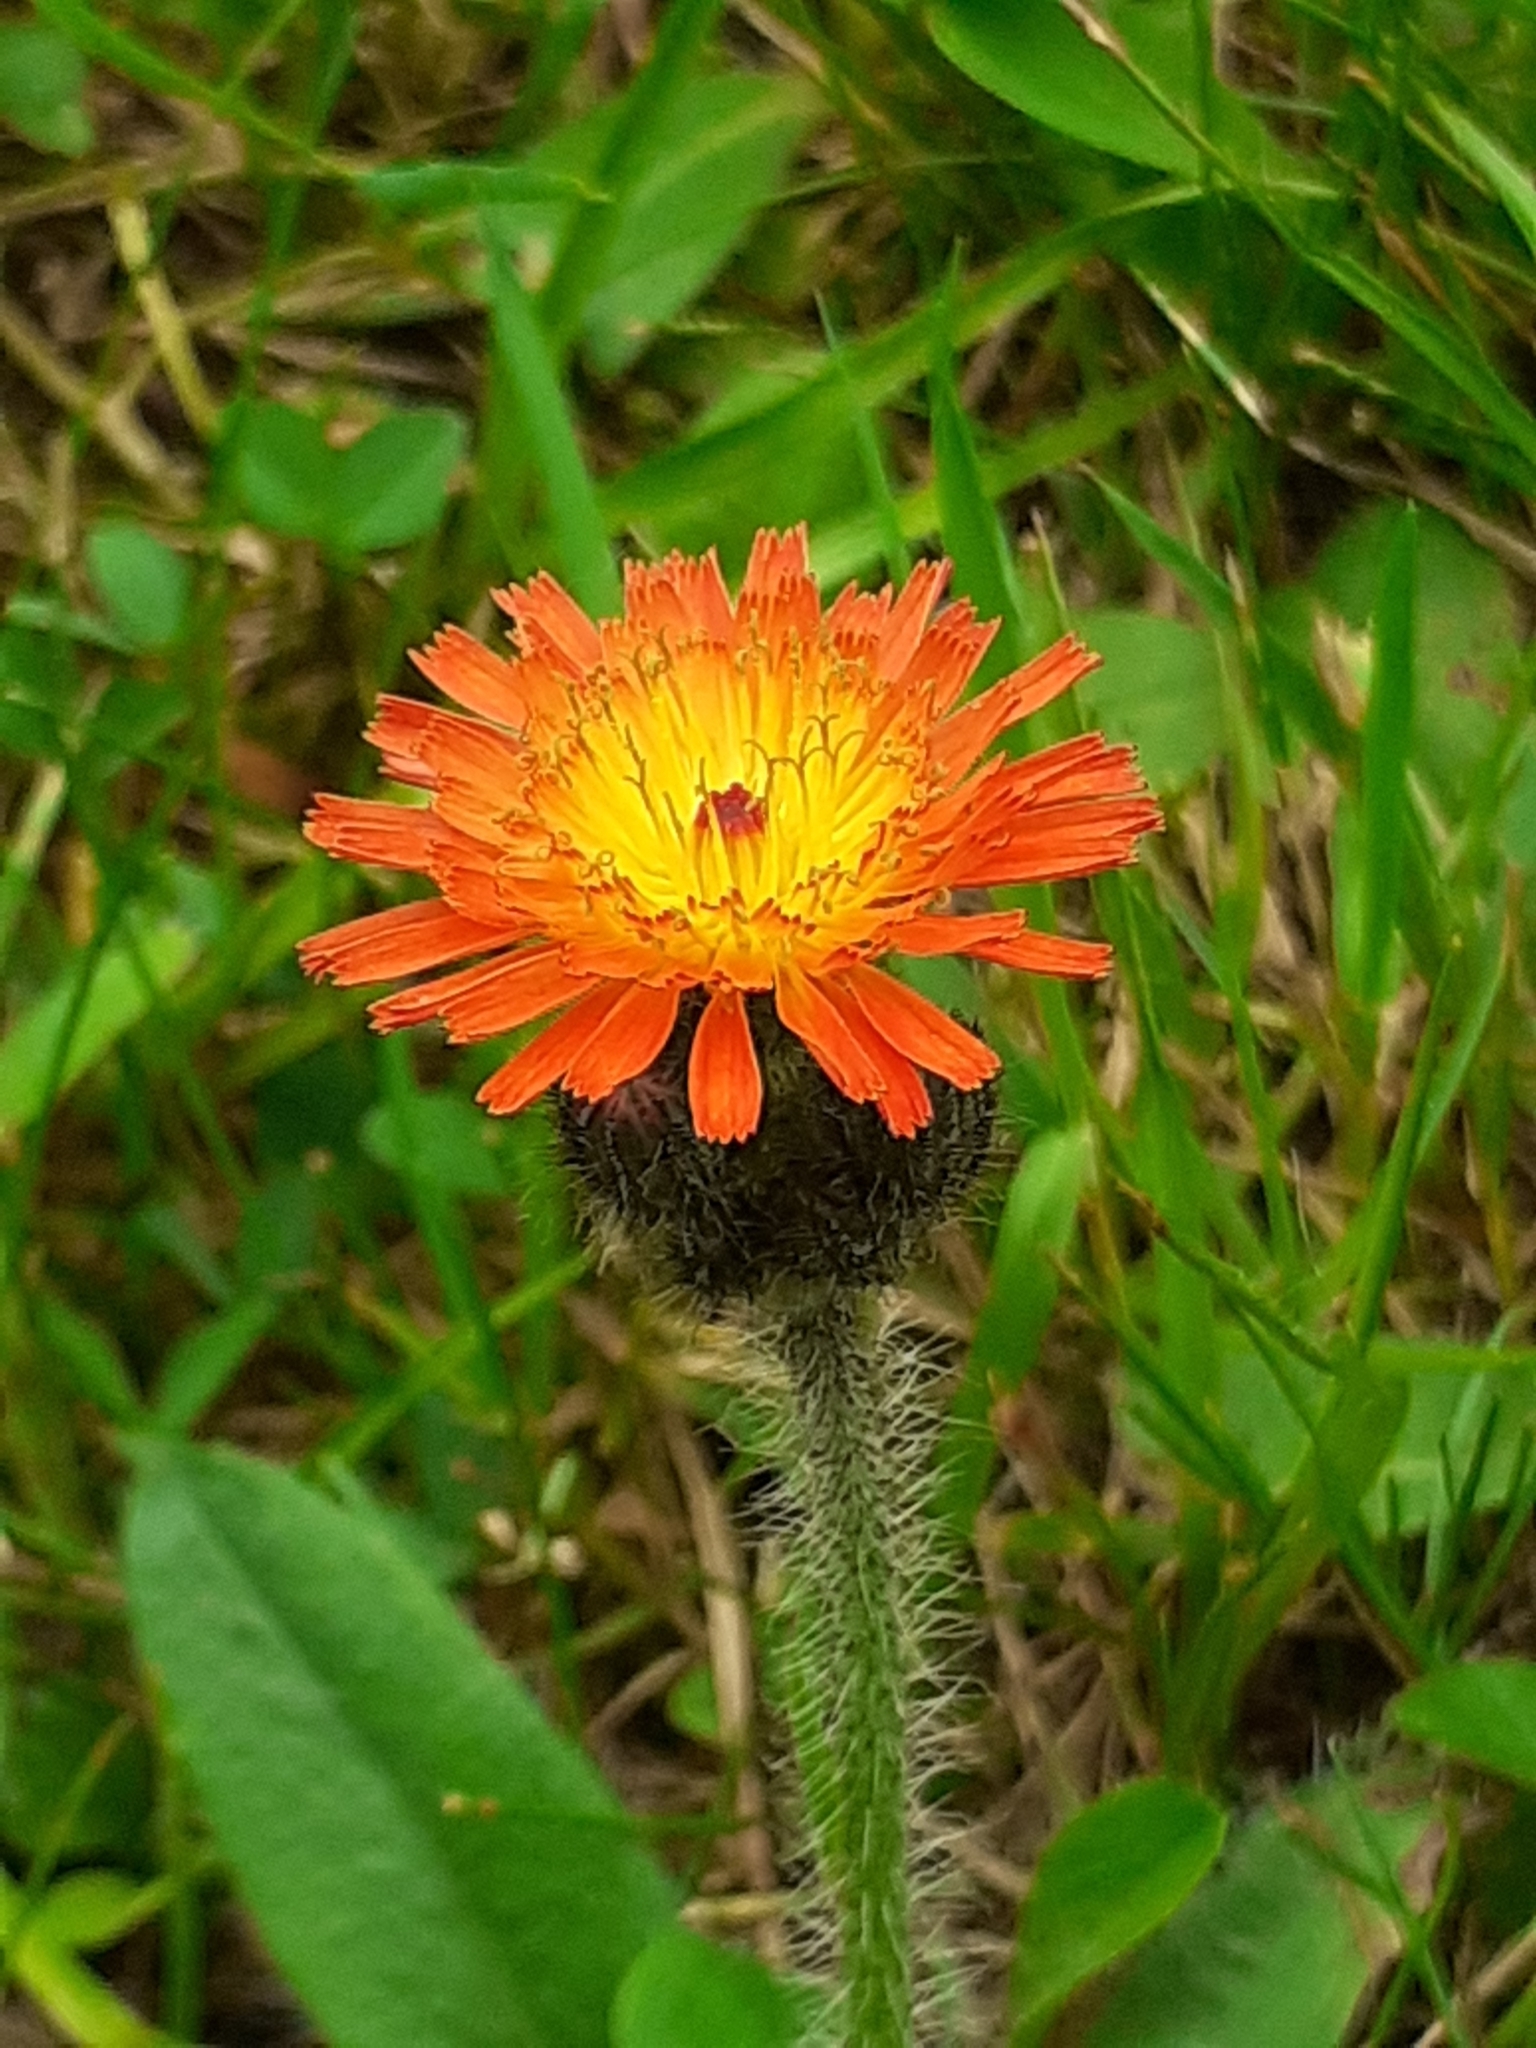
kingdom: Plantae
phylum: Tracheophyta
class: Magnoliopsida
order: Asterales
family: Asteraceae
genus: Pilosella
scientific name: Pilosella aurantiaca
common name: Fox-and-cubs
